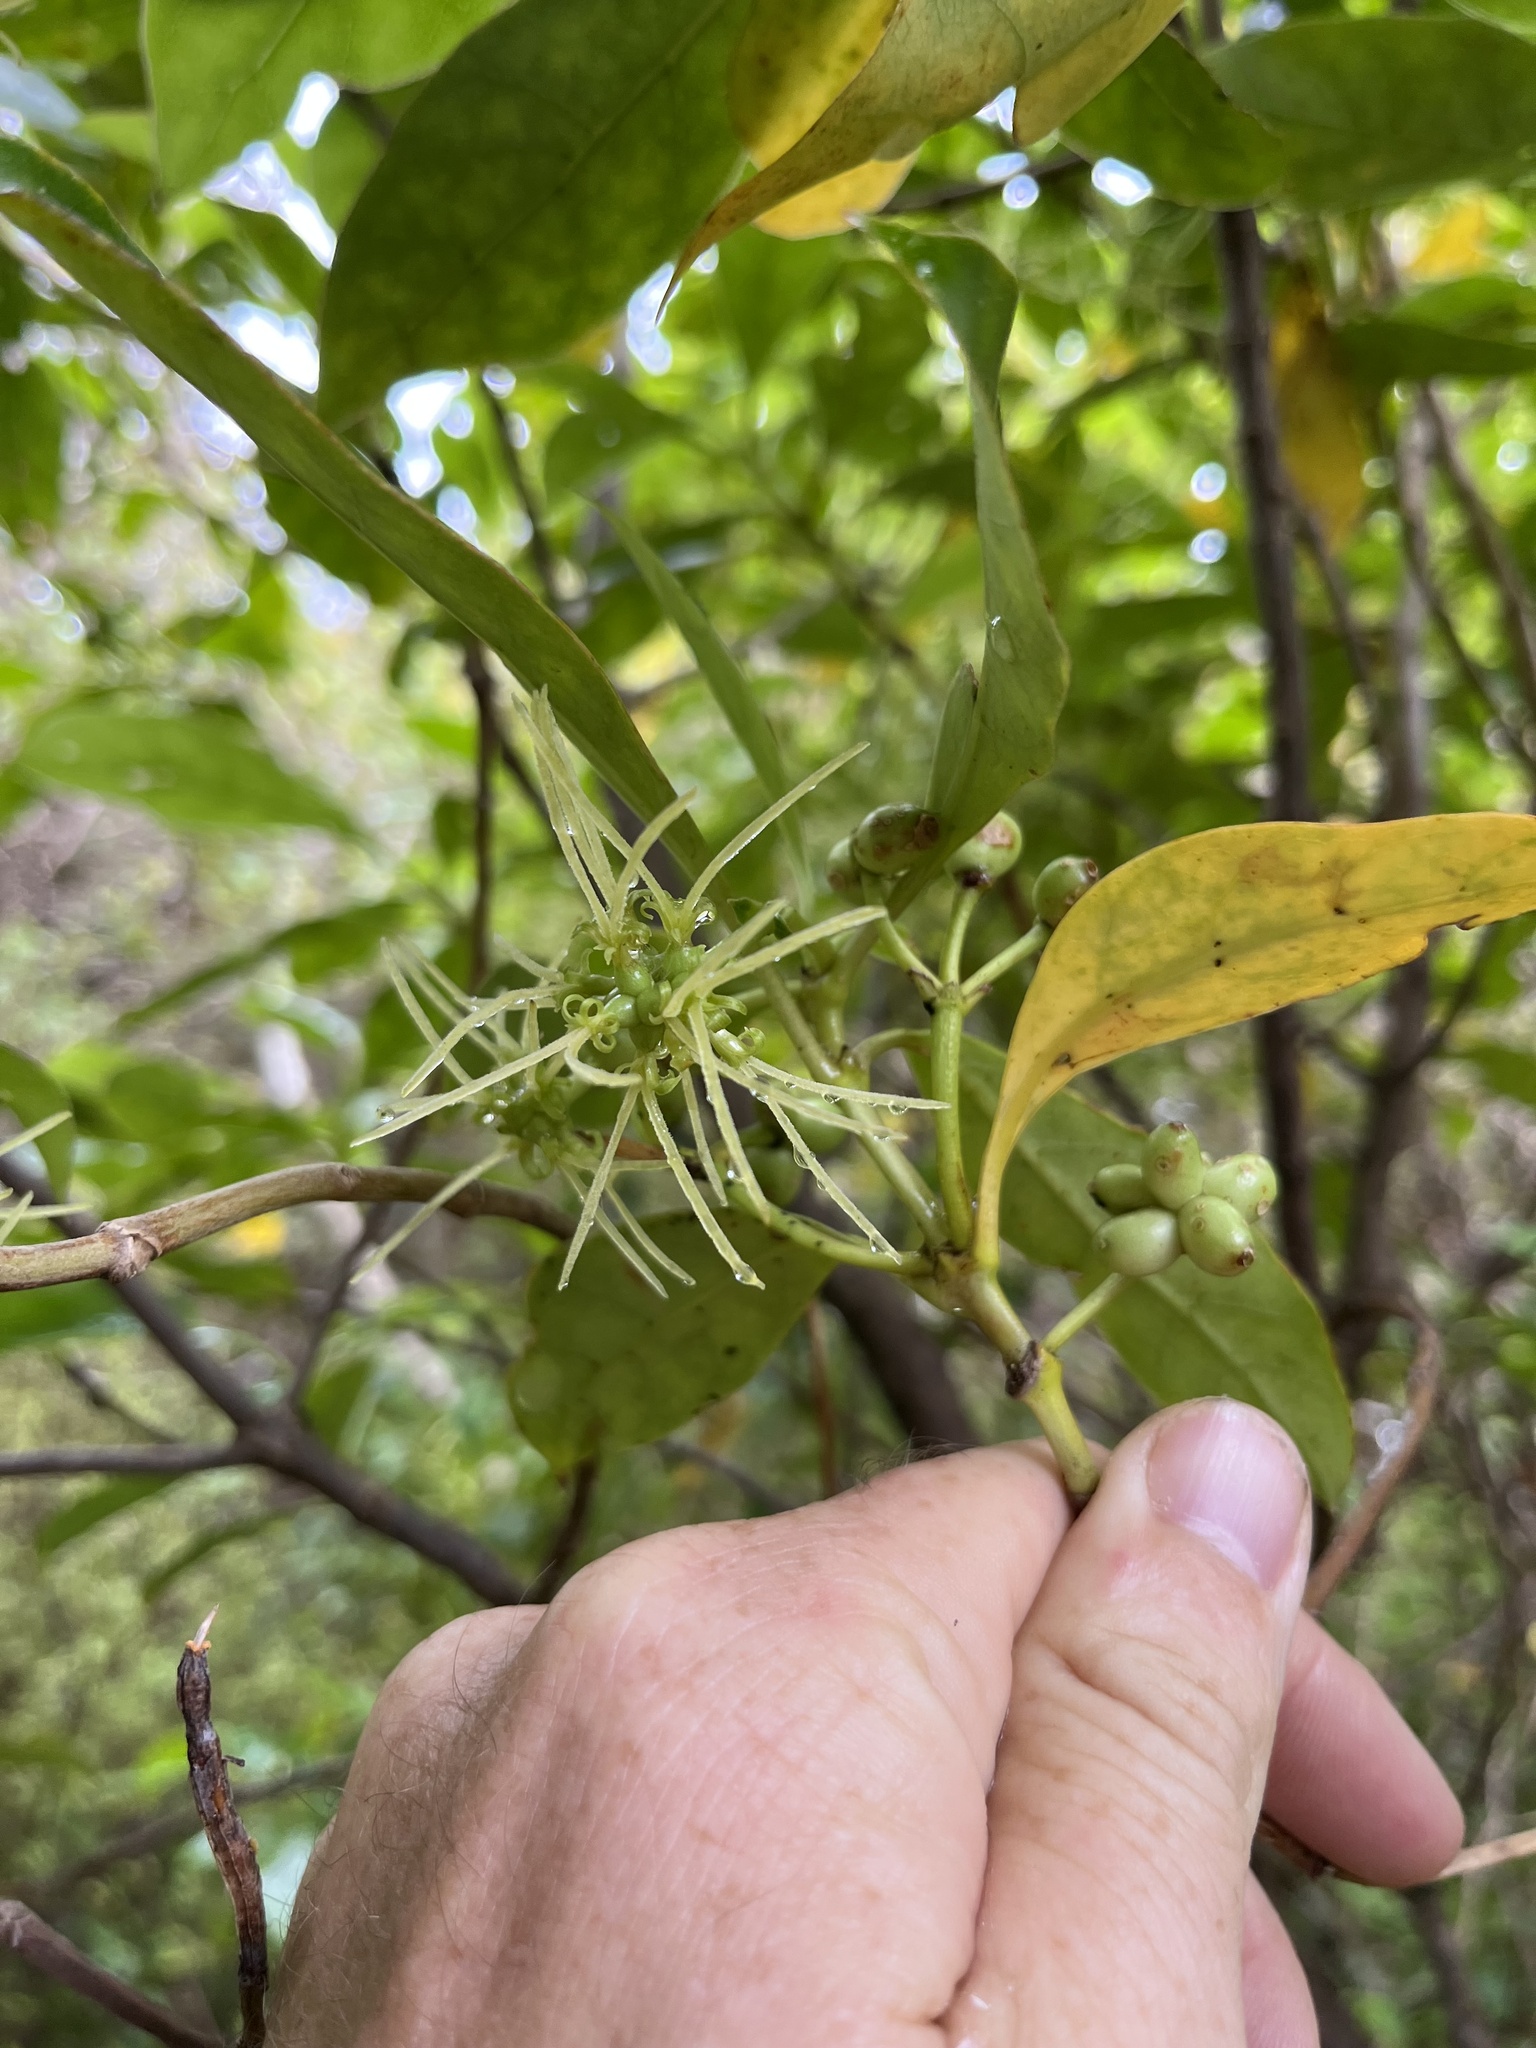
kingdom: Plantae
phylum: Tracheophyta
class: Magnoliopsida
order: Gentianales
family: Rubiaceae
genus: Coprosma
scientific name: Coprosma lucida
